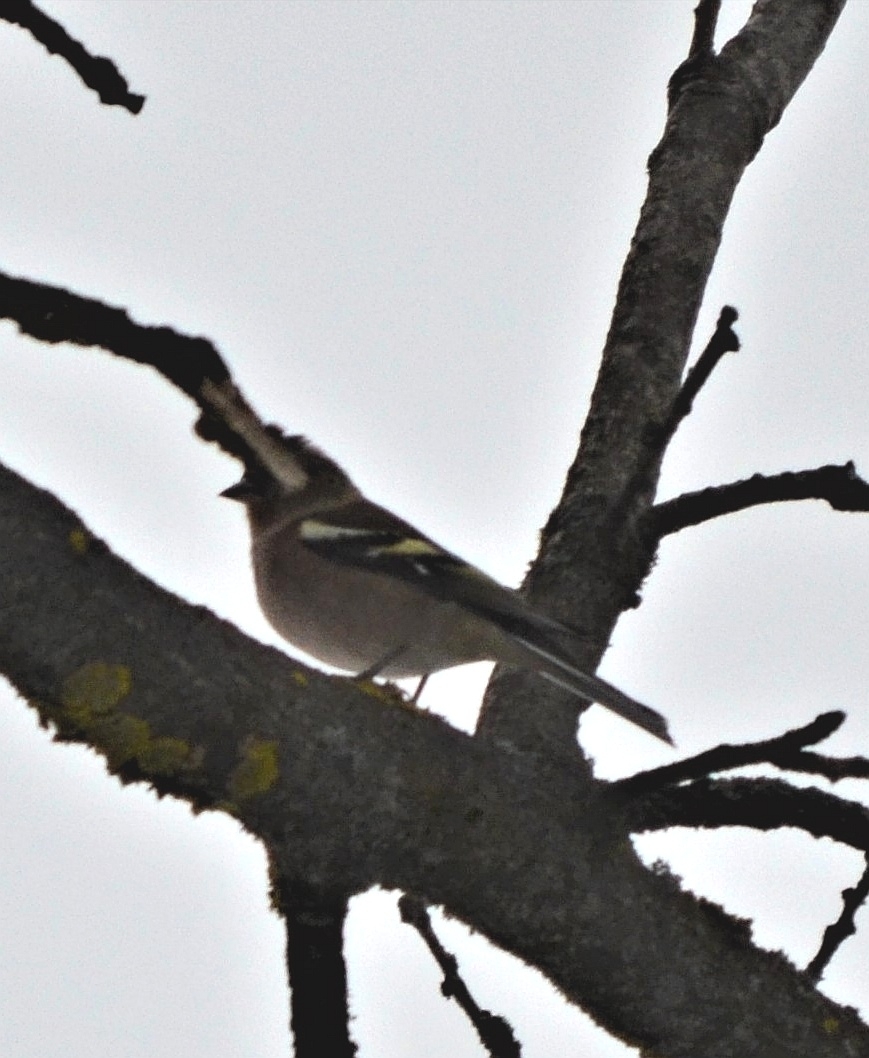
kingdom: Animalia
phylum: Chordata
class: Aves
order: Passeriformes
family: Fringillidae
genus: Fringilla
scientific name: Fringilla coelebs
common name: Common chaffinch
